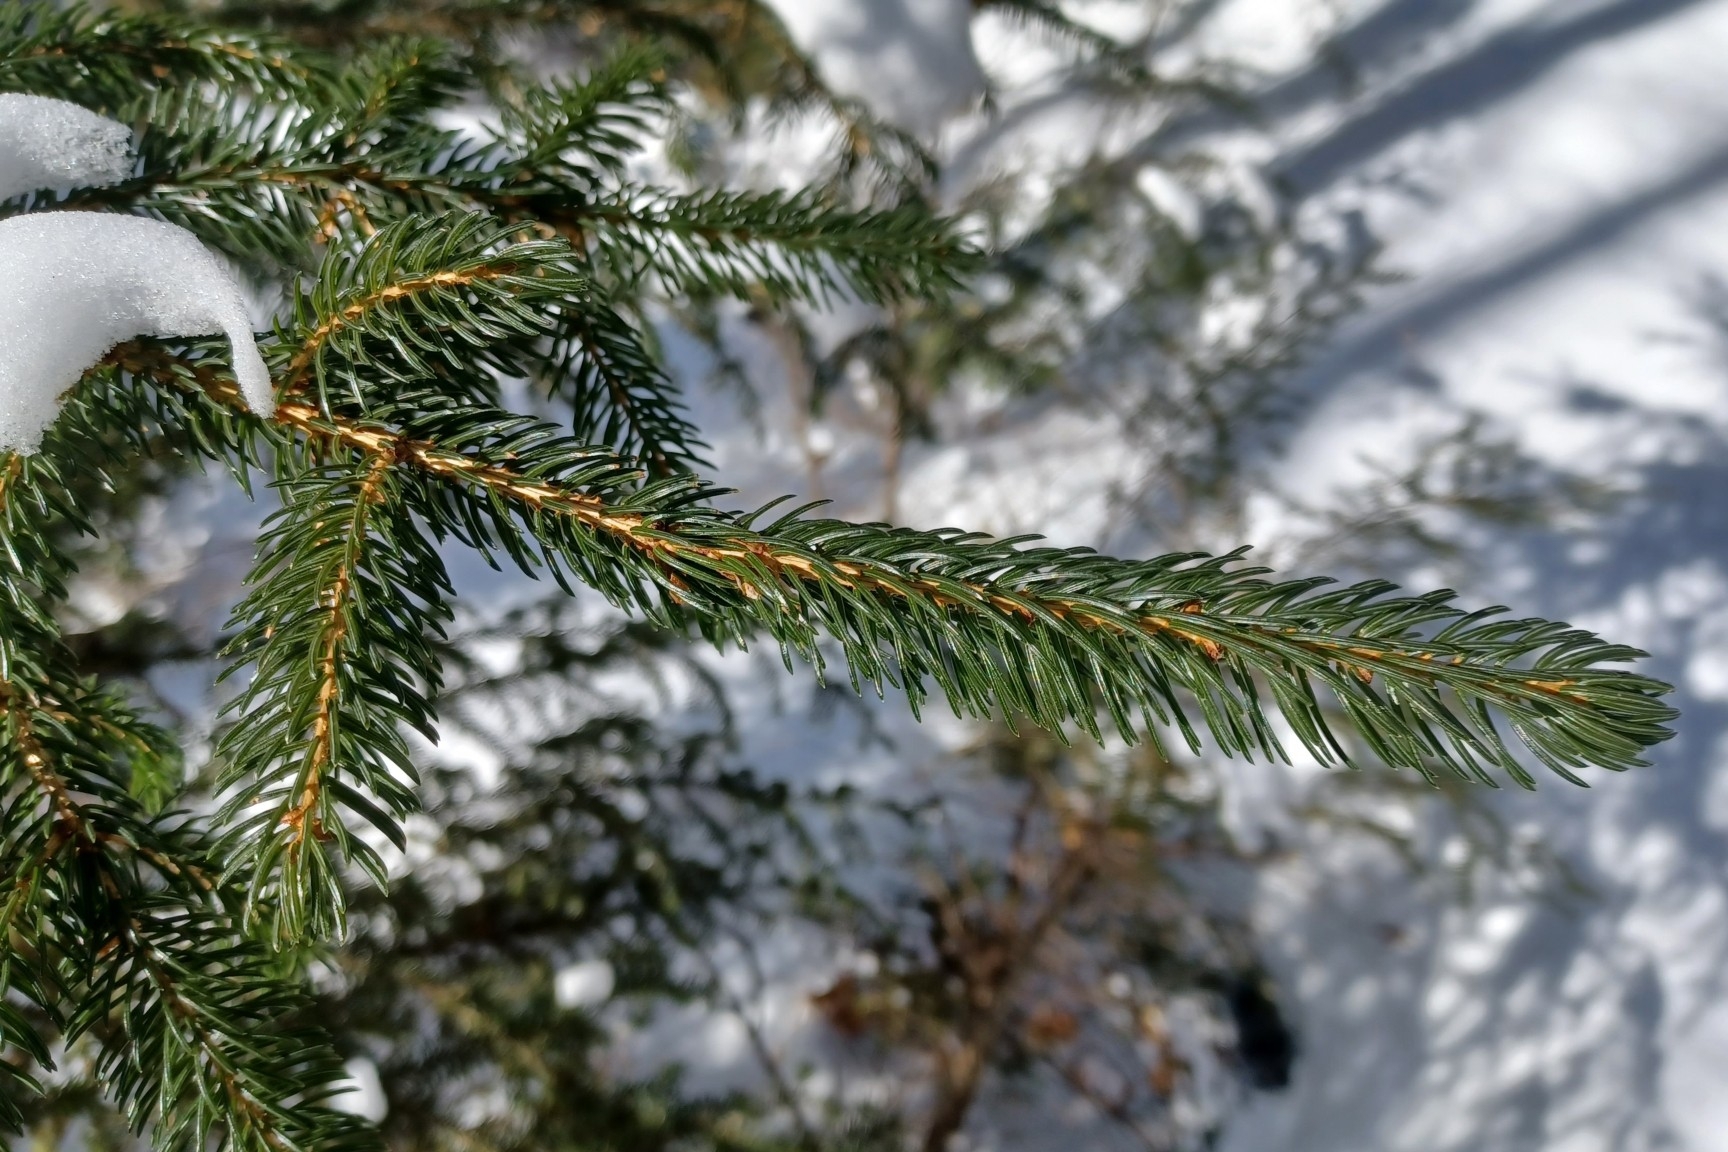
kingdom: Plantae
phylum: Tracheophyta
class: Pinopsida
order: Pinales
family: Pinaceae
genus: Picea
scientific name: Picea rubens
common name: Red spruce
